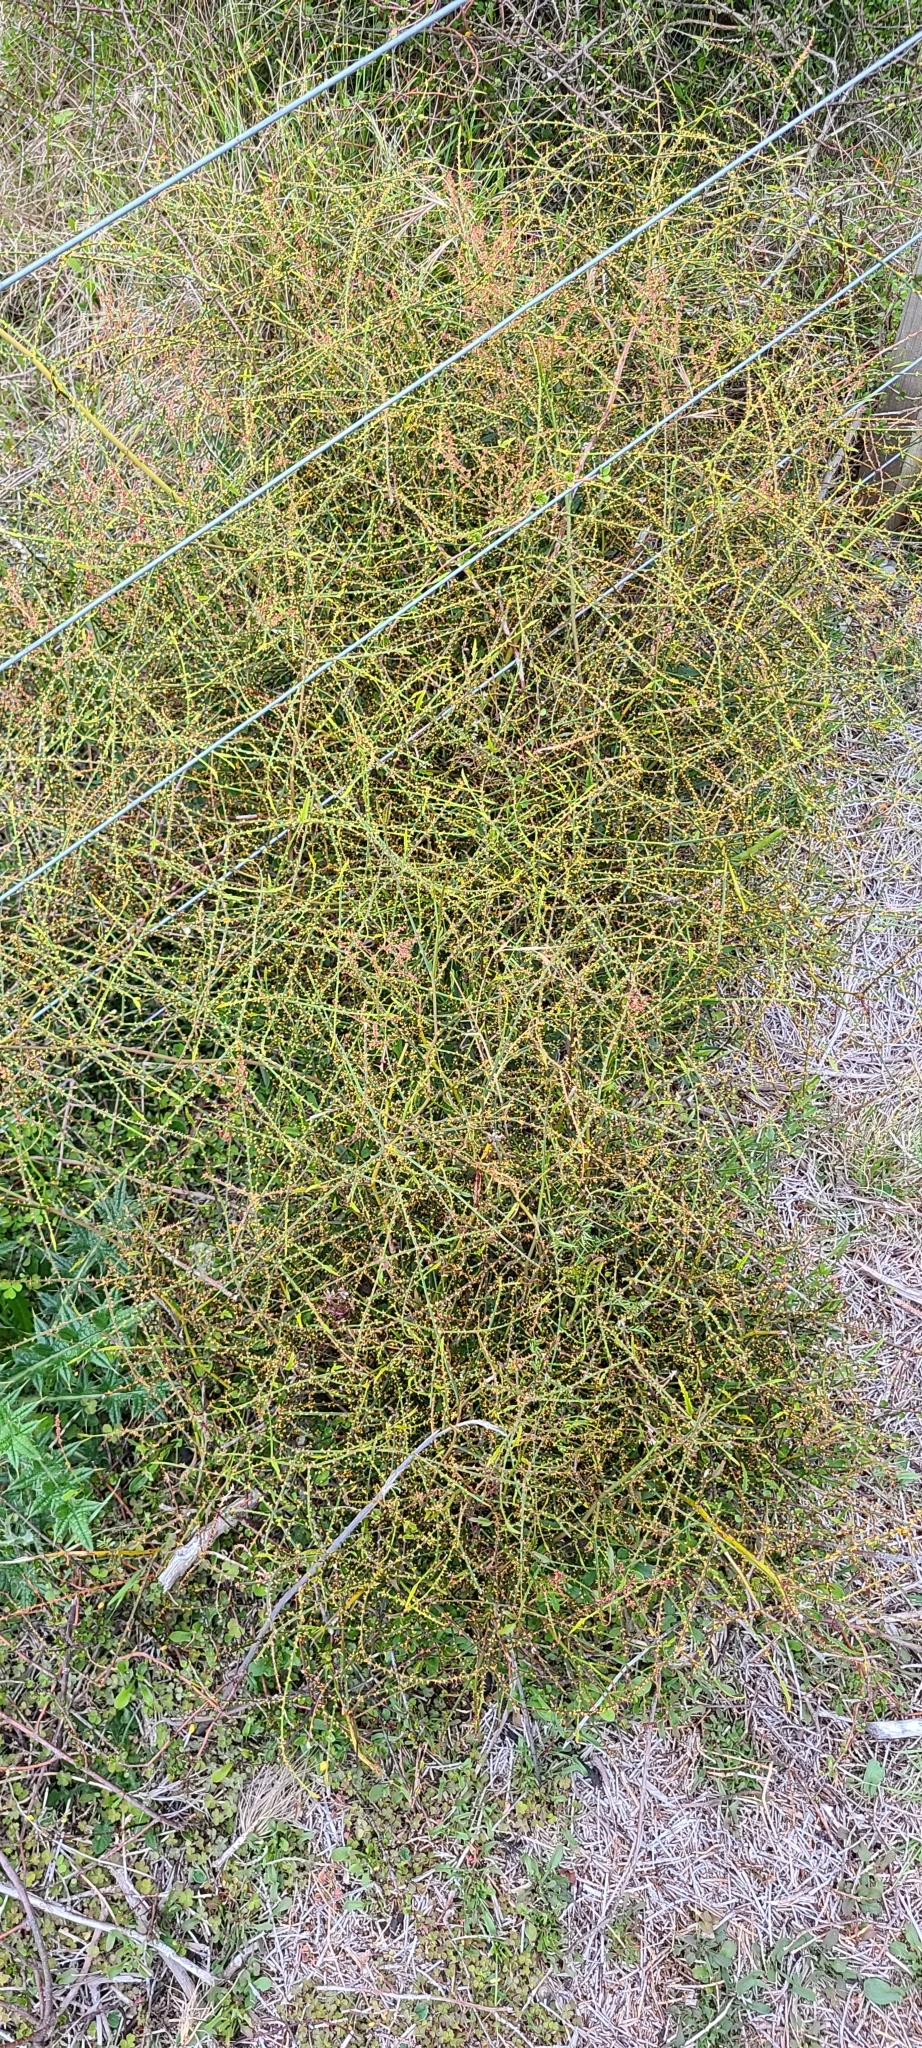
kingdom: Plantae
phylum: Tracheophyta
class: Magnoliopsida
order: Rosales
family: Rosaceae
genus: Rubus
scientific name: Rubus squarrosus
